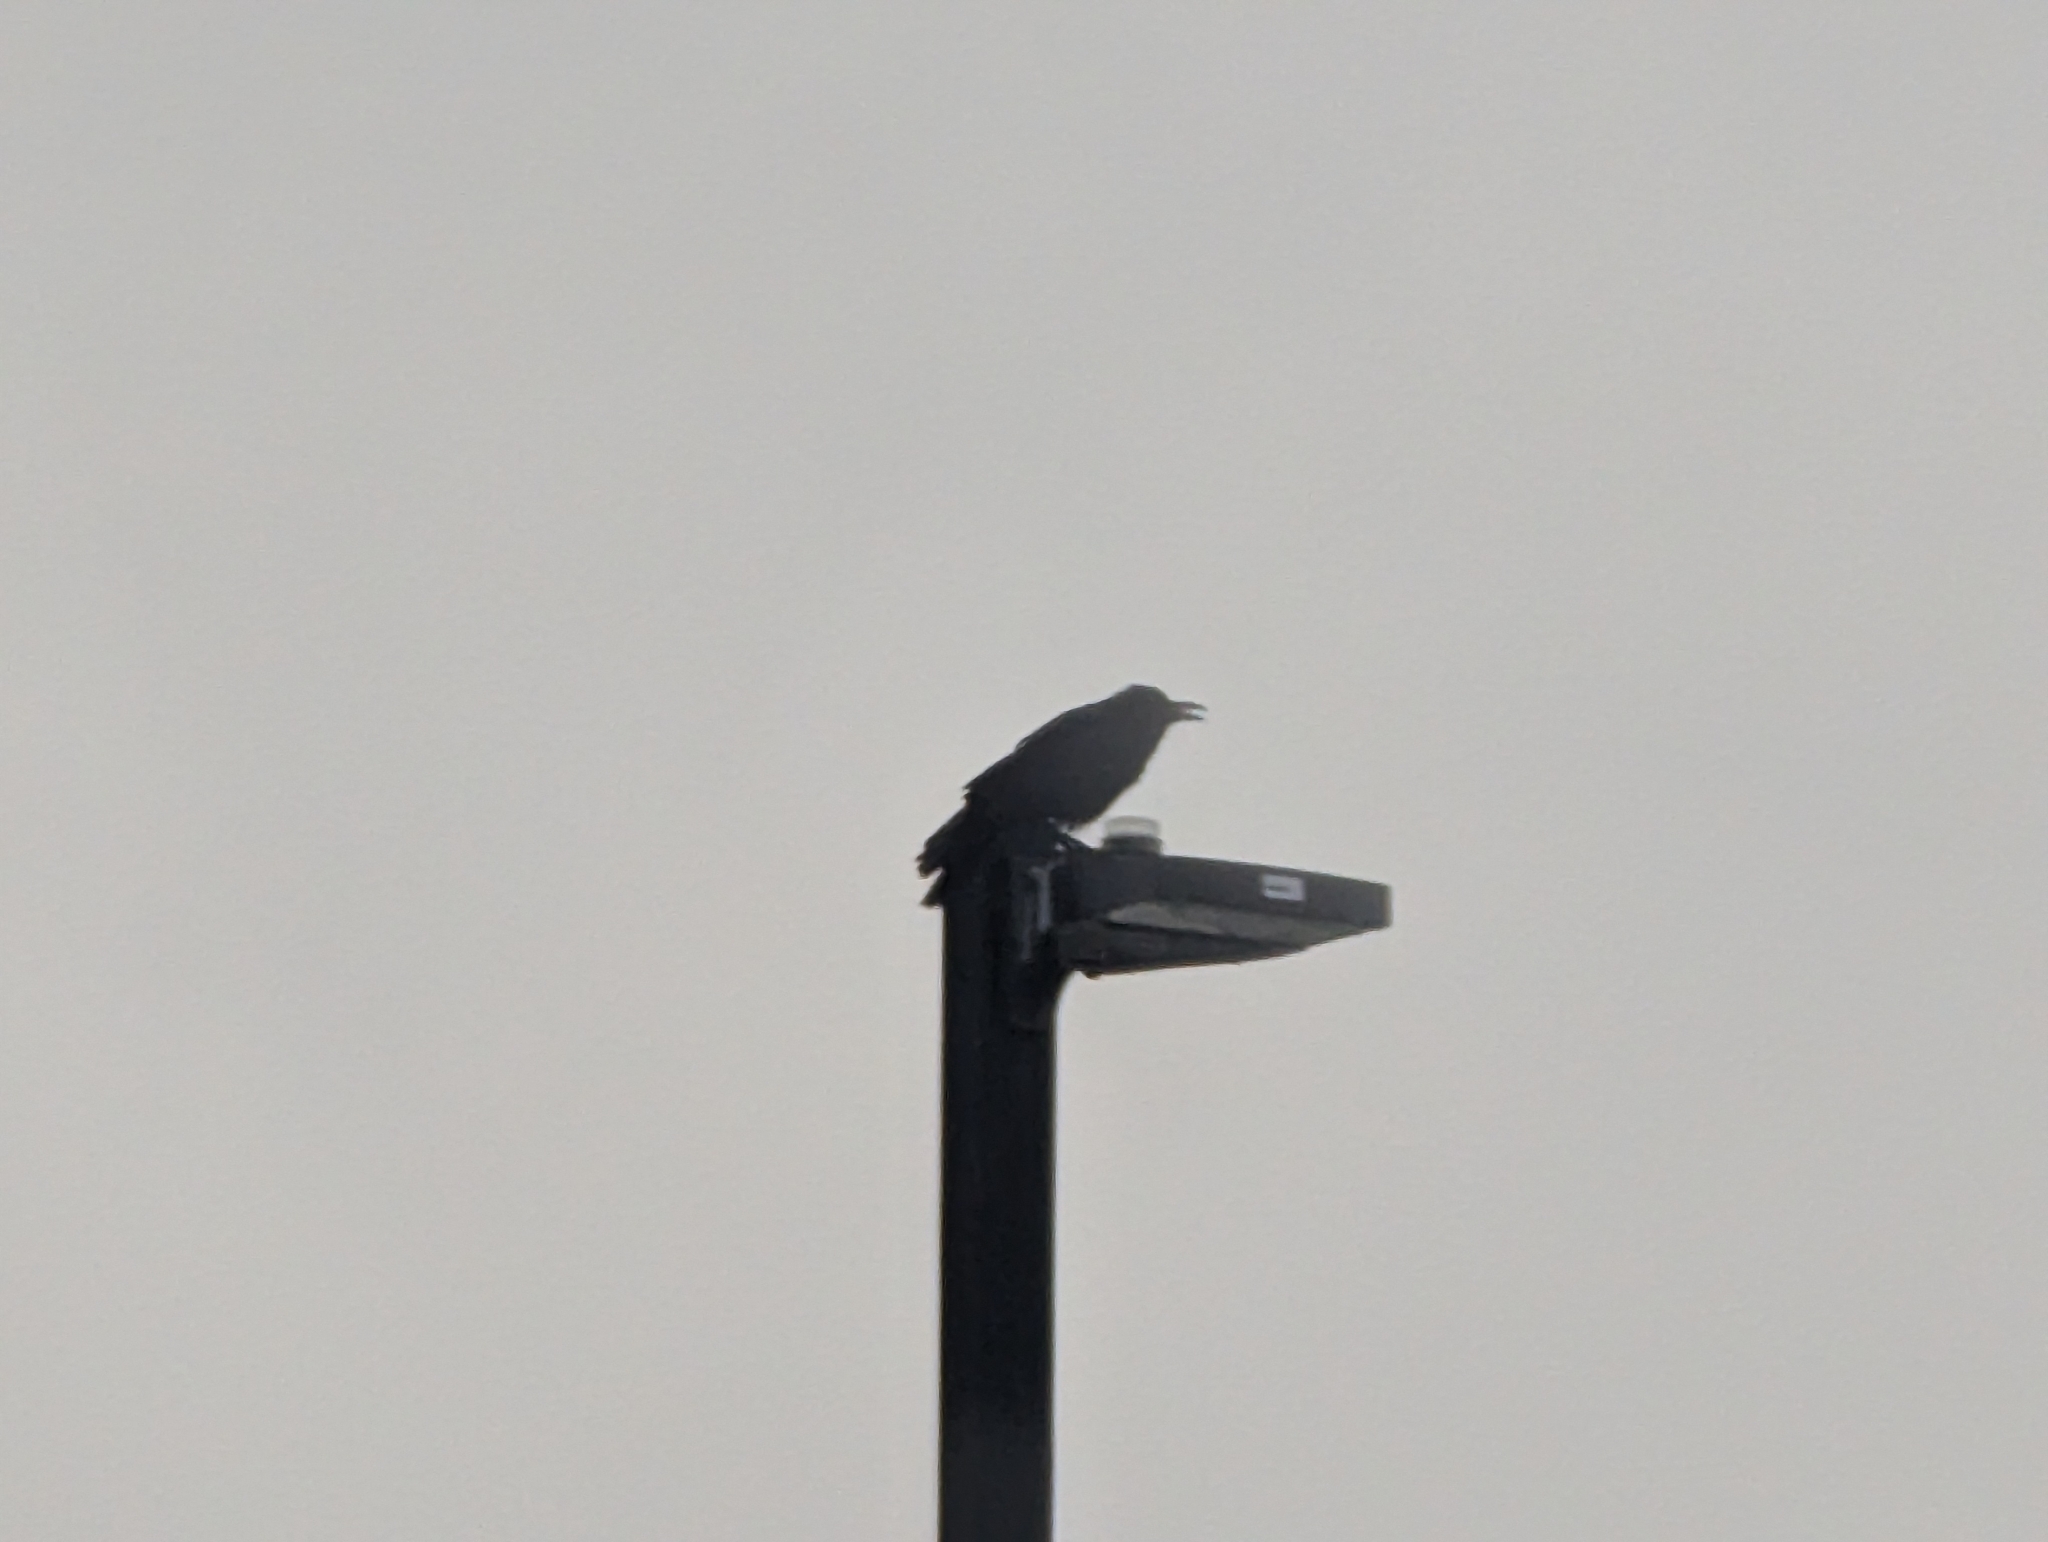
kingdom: Animalia
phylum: Chordata
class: Aves
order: Passeriformes
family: Corvidae
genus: Corvus
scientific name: Corvus brachyrhynchos
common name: American crow
